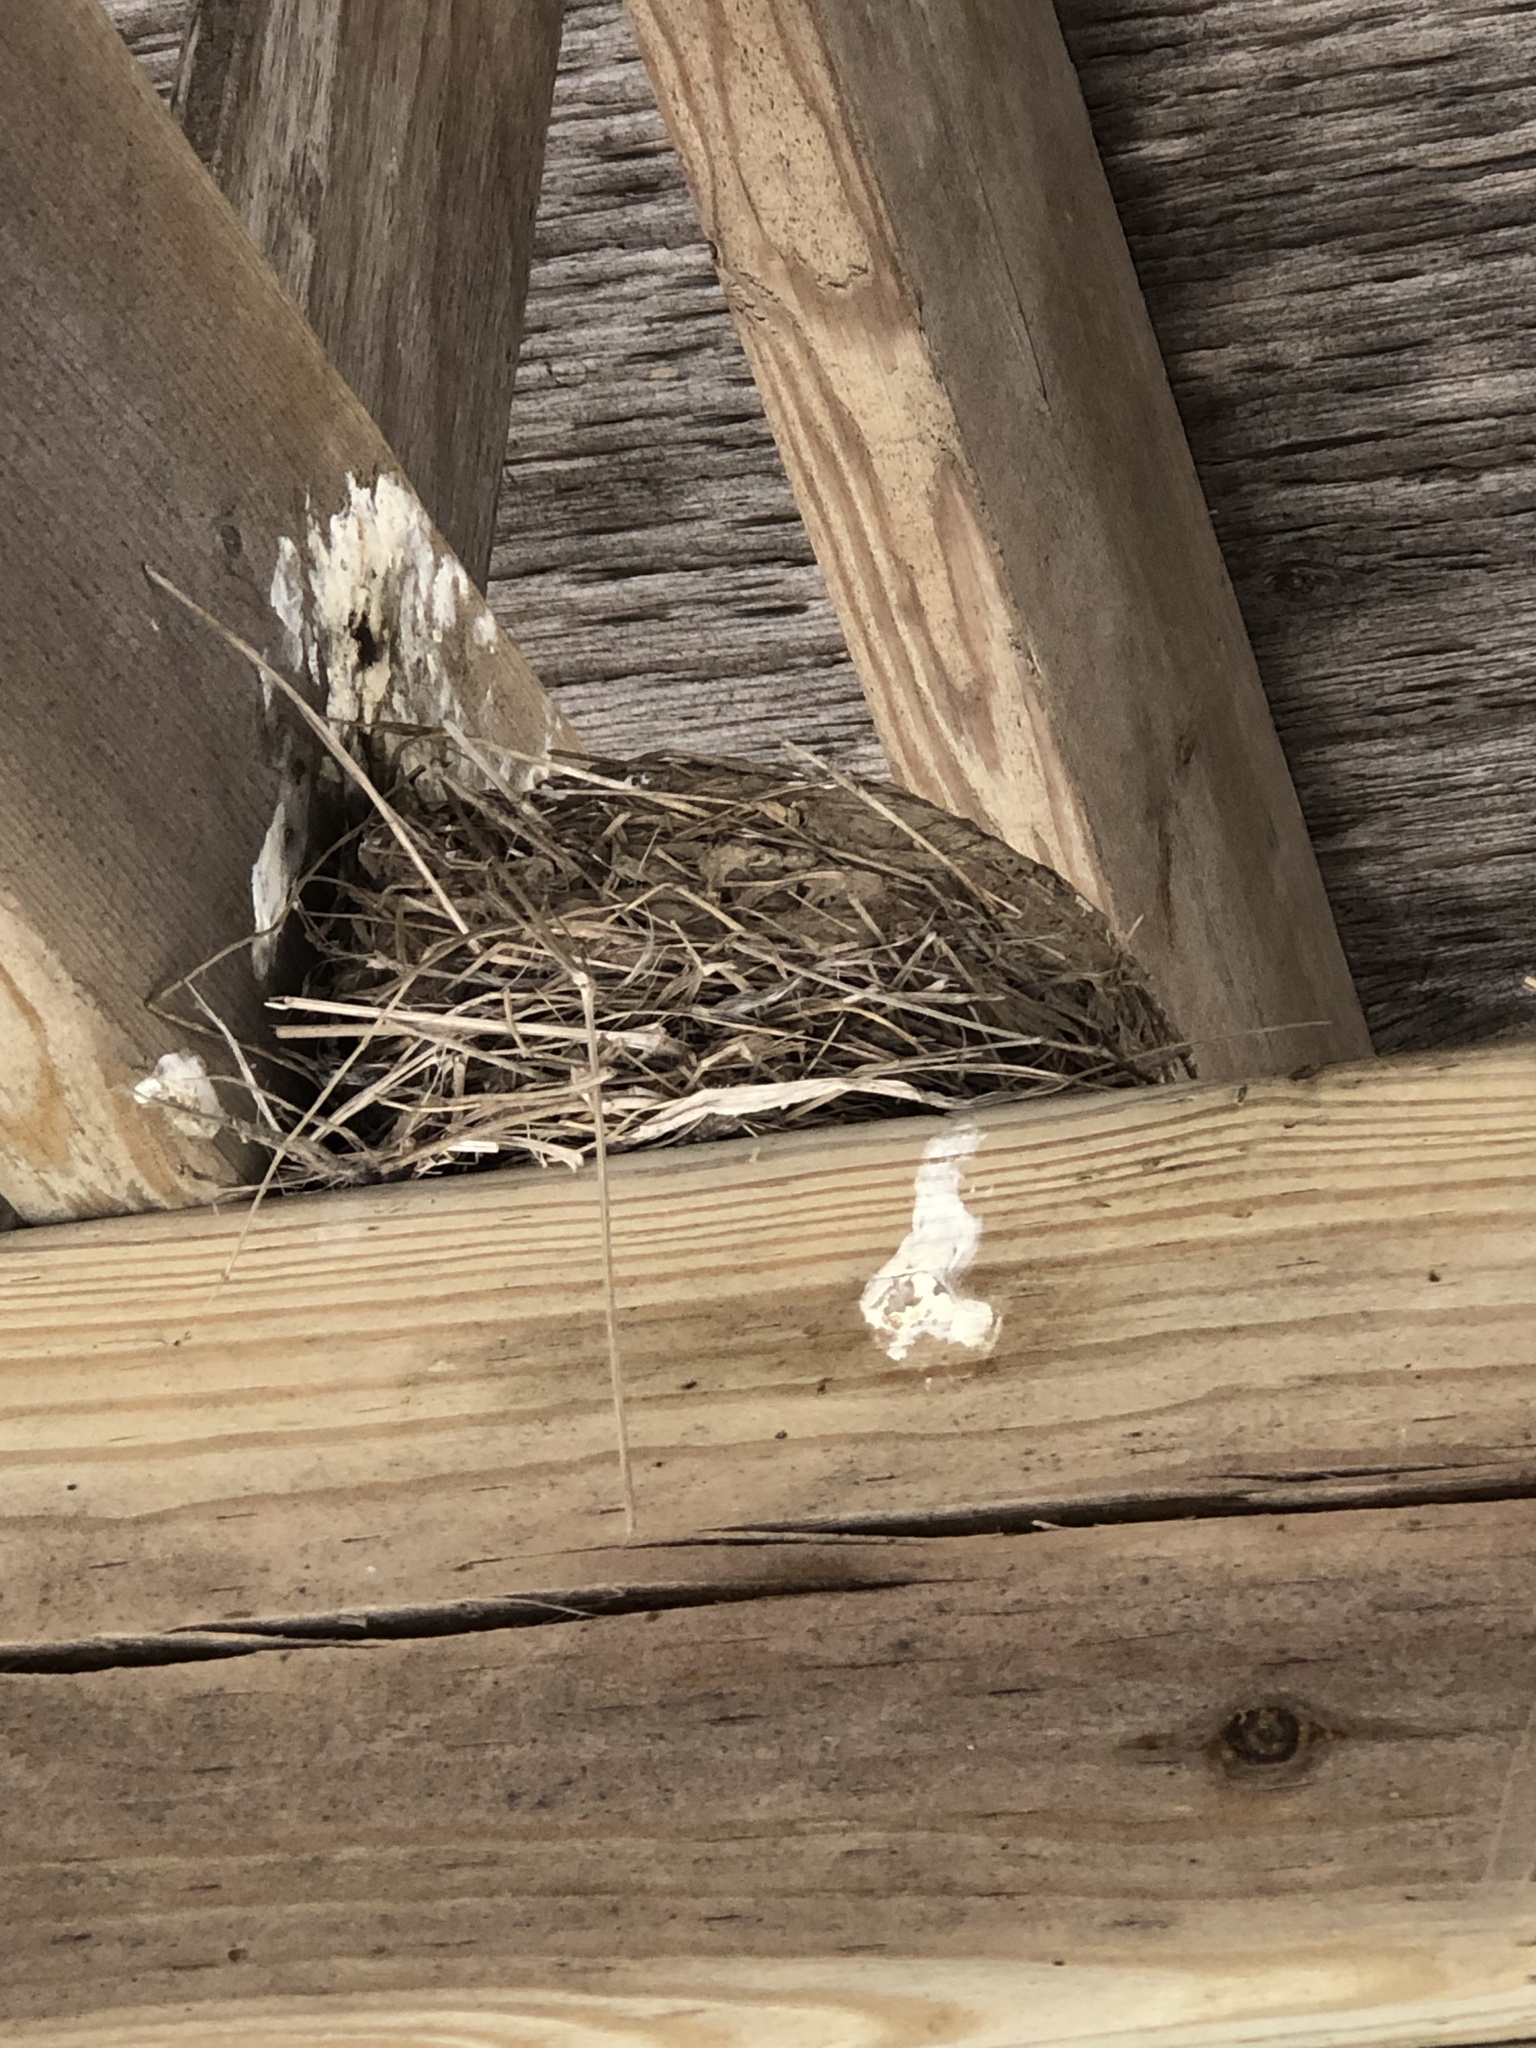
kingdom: Animalia
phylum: Chordata
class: Aves
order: Passeriformes
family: Turdidae
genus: Turdus
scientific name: Turdus migratorius
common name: American robin
